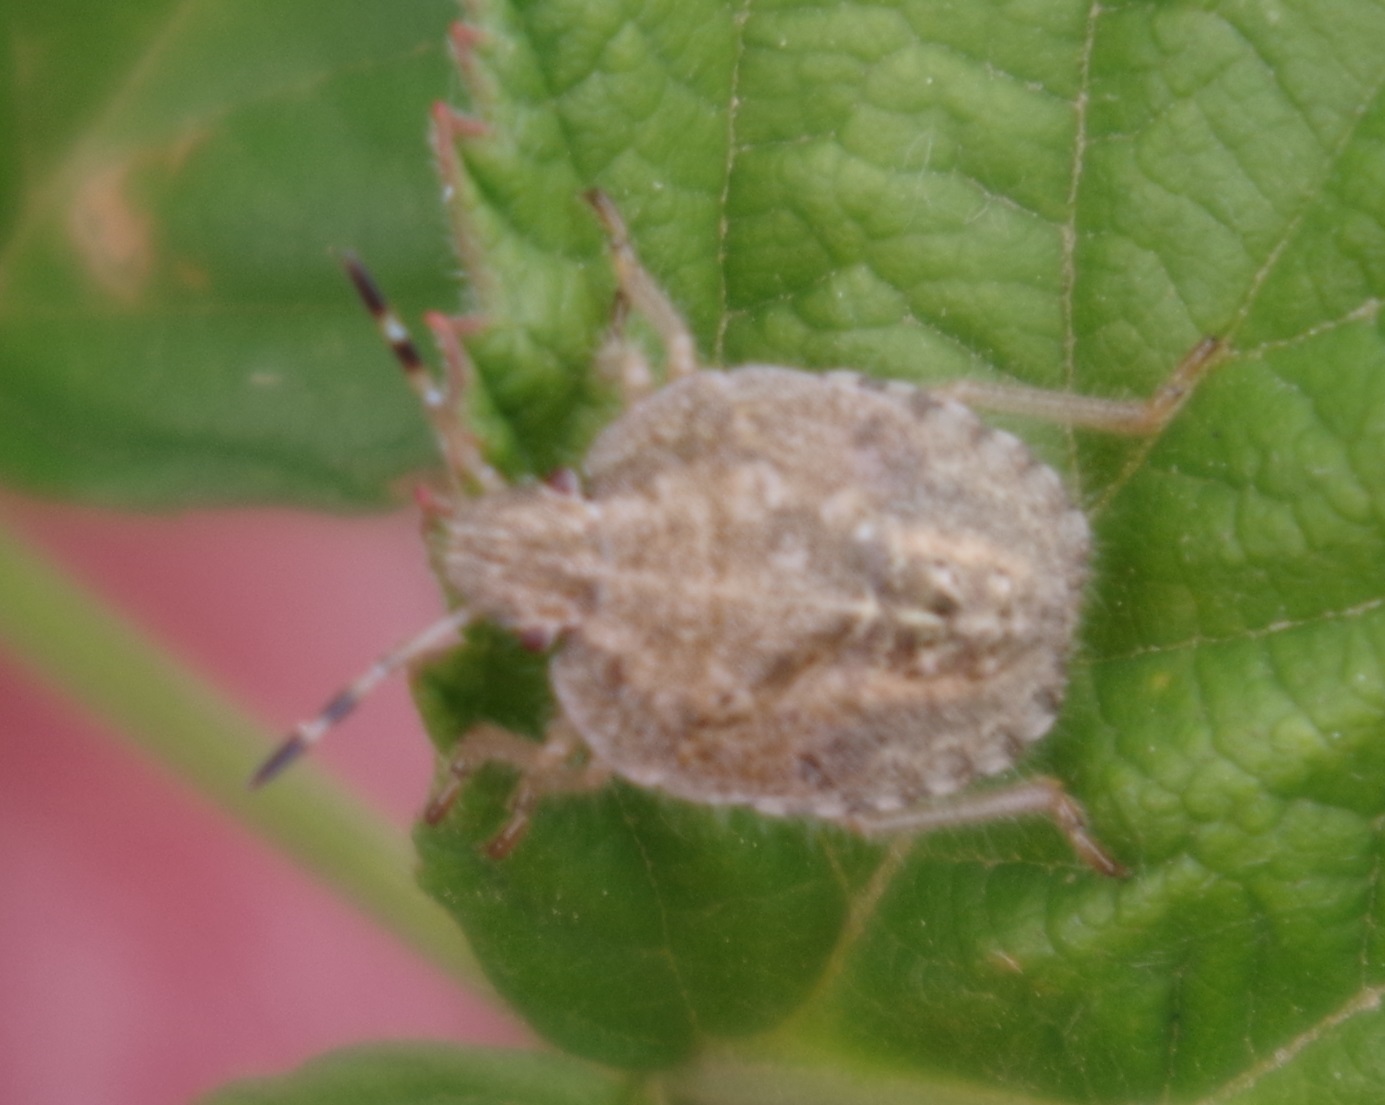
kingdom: Animalia
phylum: Arthropoda
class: Insecta
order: Hemiptera
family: Pentatomidae
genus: Dolycoris
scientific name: Dolycoris baccarum
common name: Sloe bug
